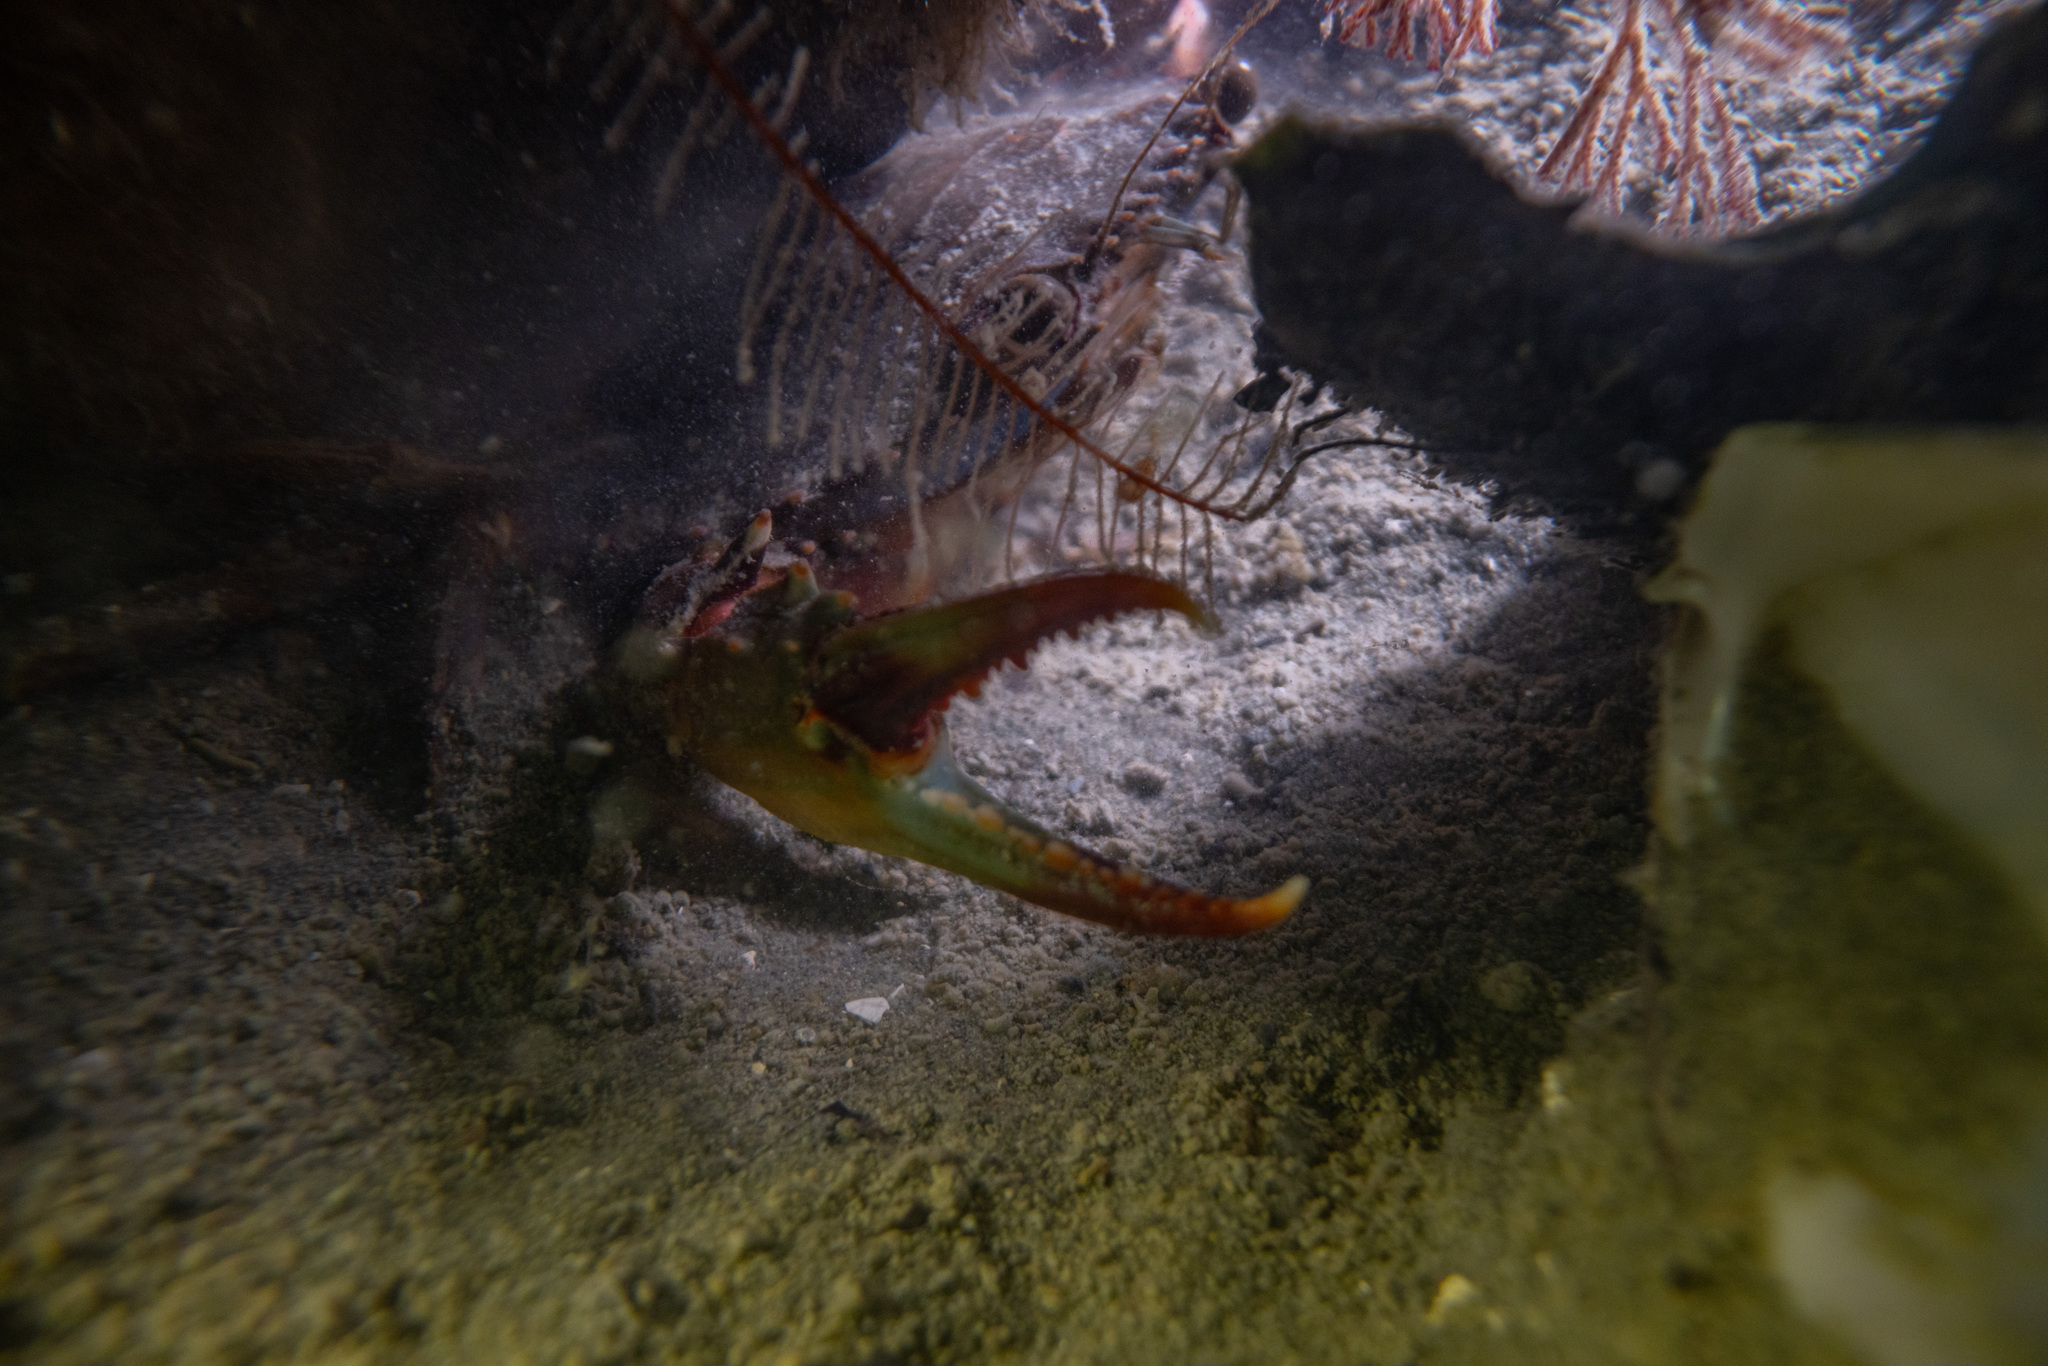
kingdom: Animalia
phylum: Arthropoda
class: Malacostraca
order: Decapoda
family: Portunidae
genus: Charybdis
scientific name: Charybdis japonica
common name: Asian paddle crab
